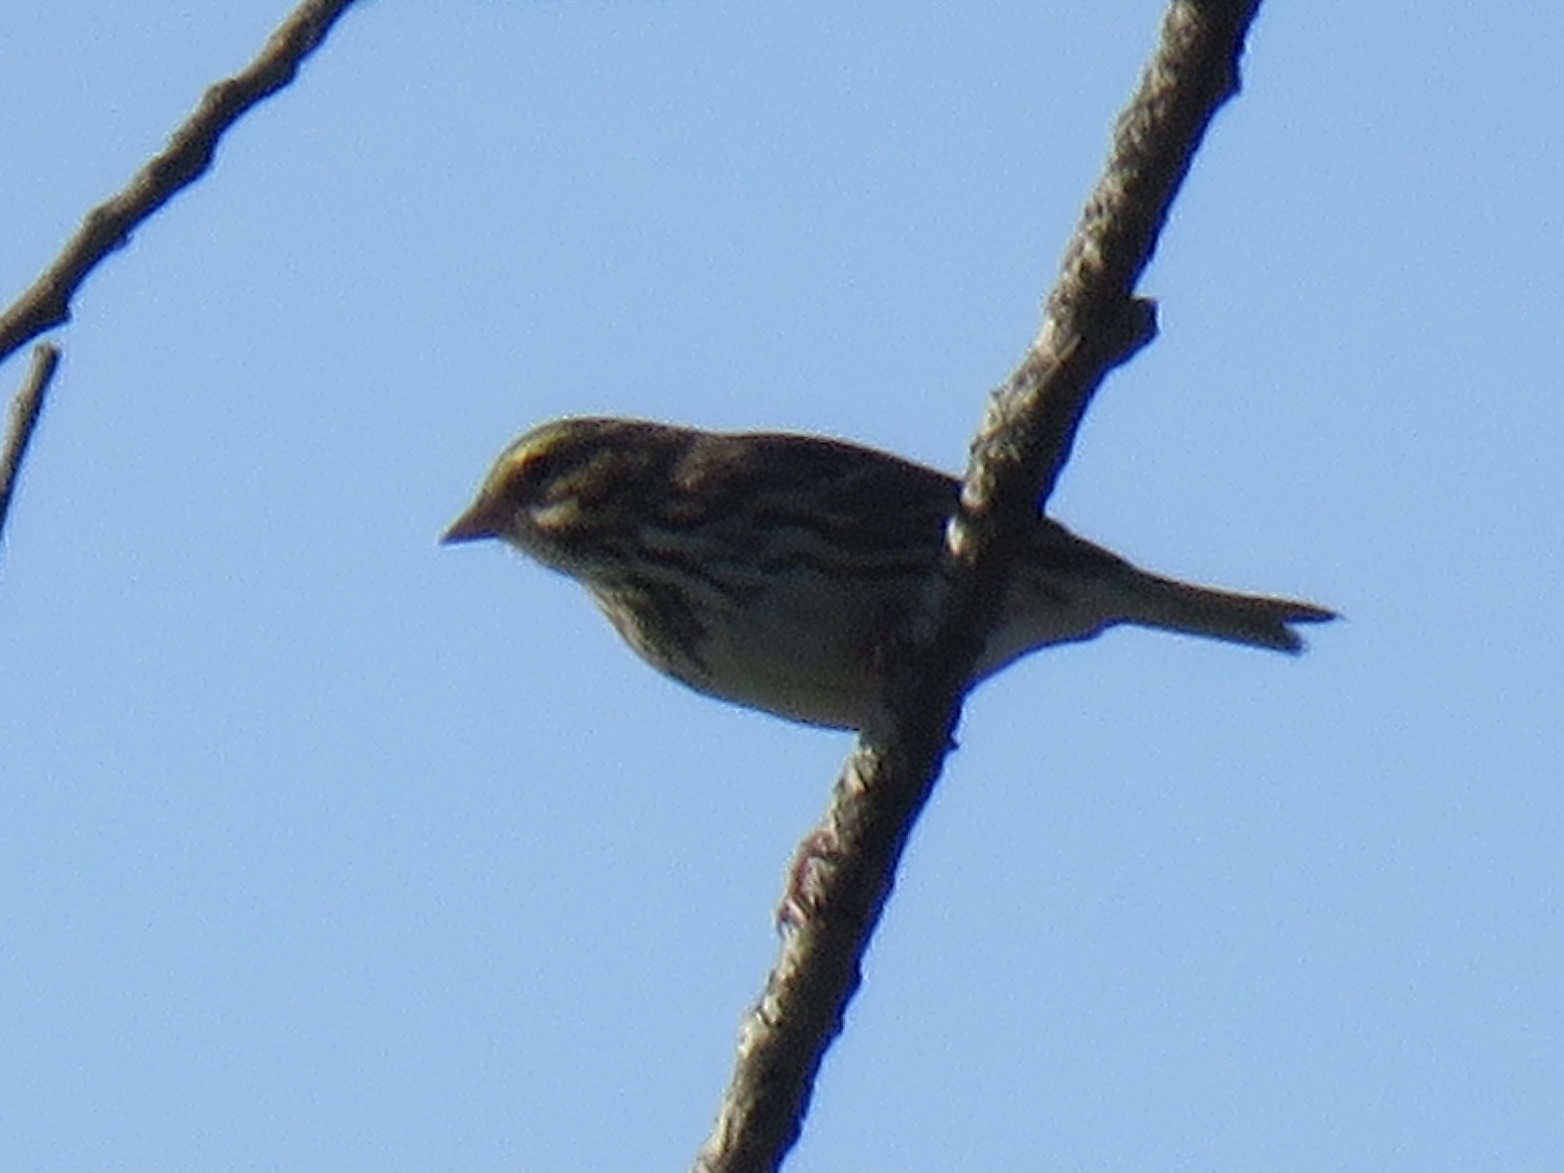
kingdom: Animalia
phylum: Chordata
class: Aves
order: Passeriformes
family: Passerellidae
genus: Passerculus
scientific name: Passerculus sandwichensis
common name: Savannah sparrow
